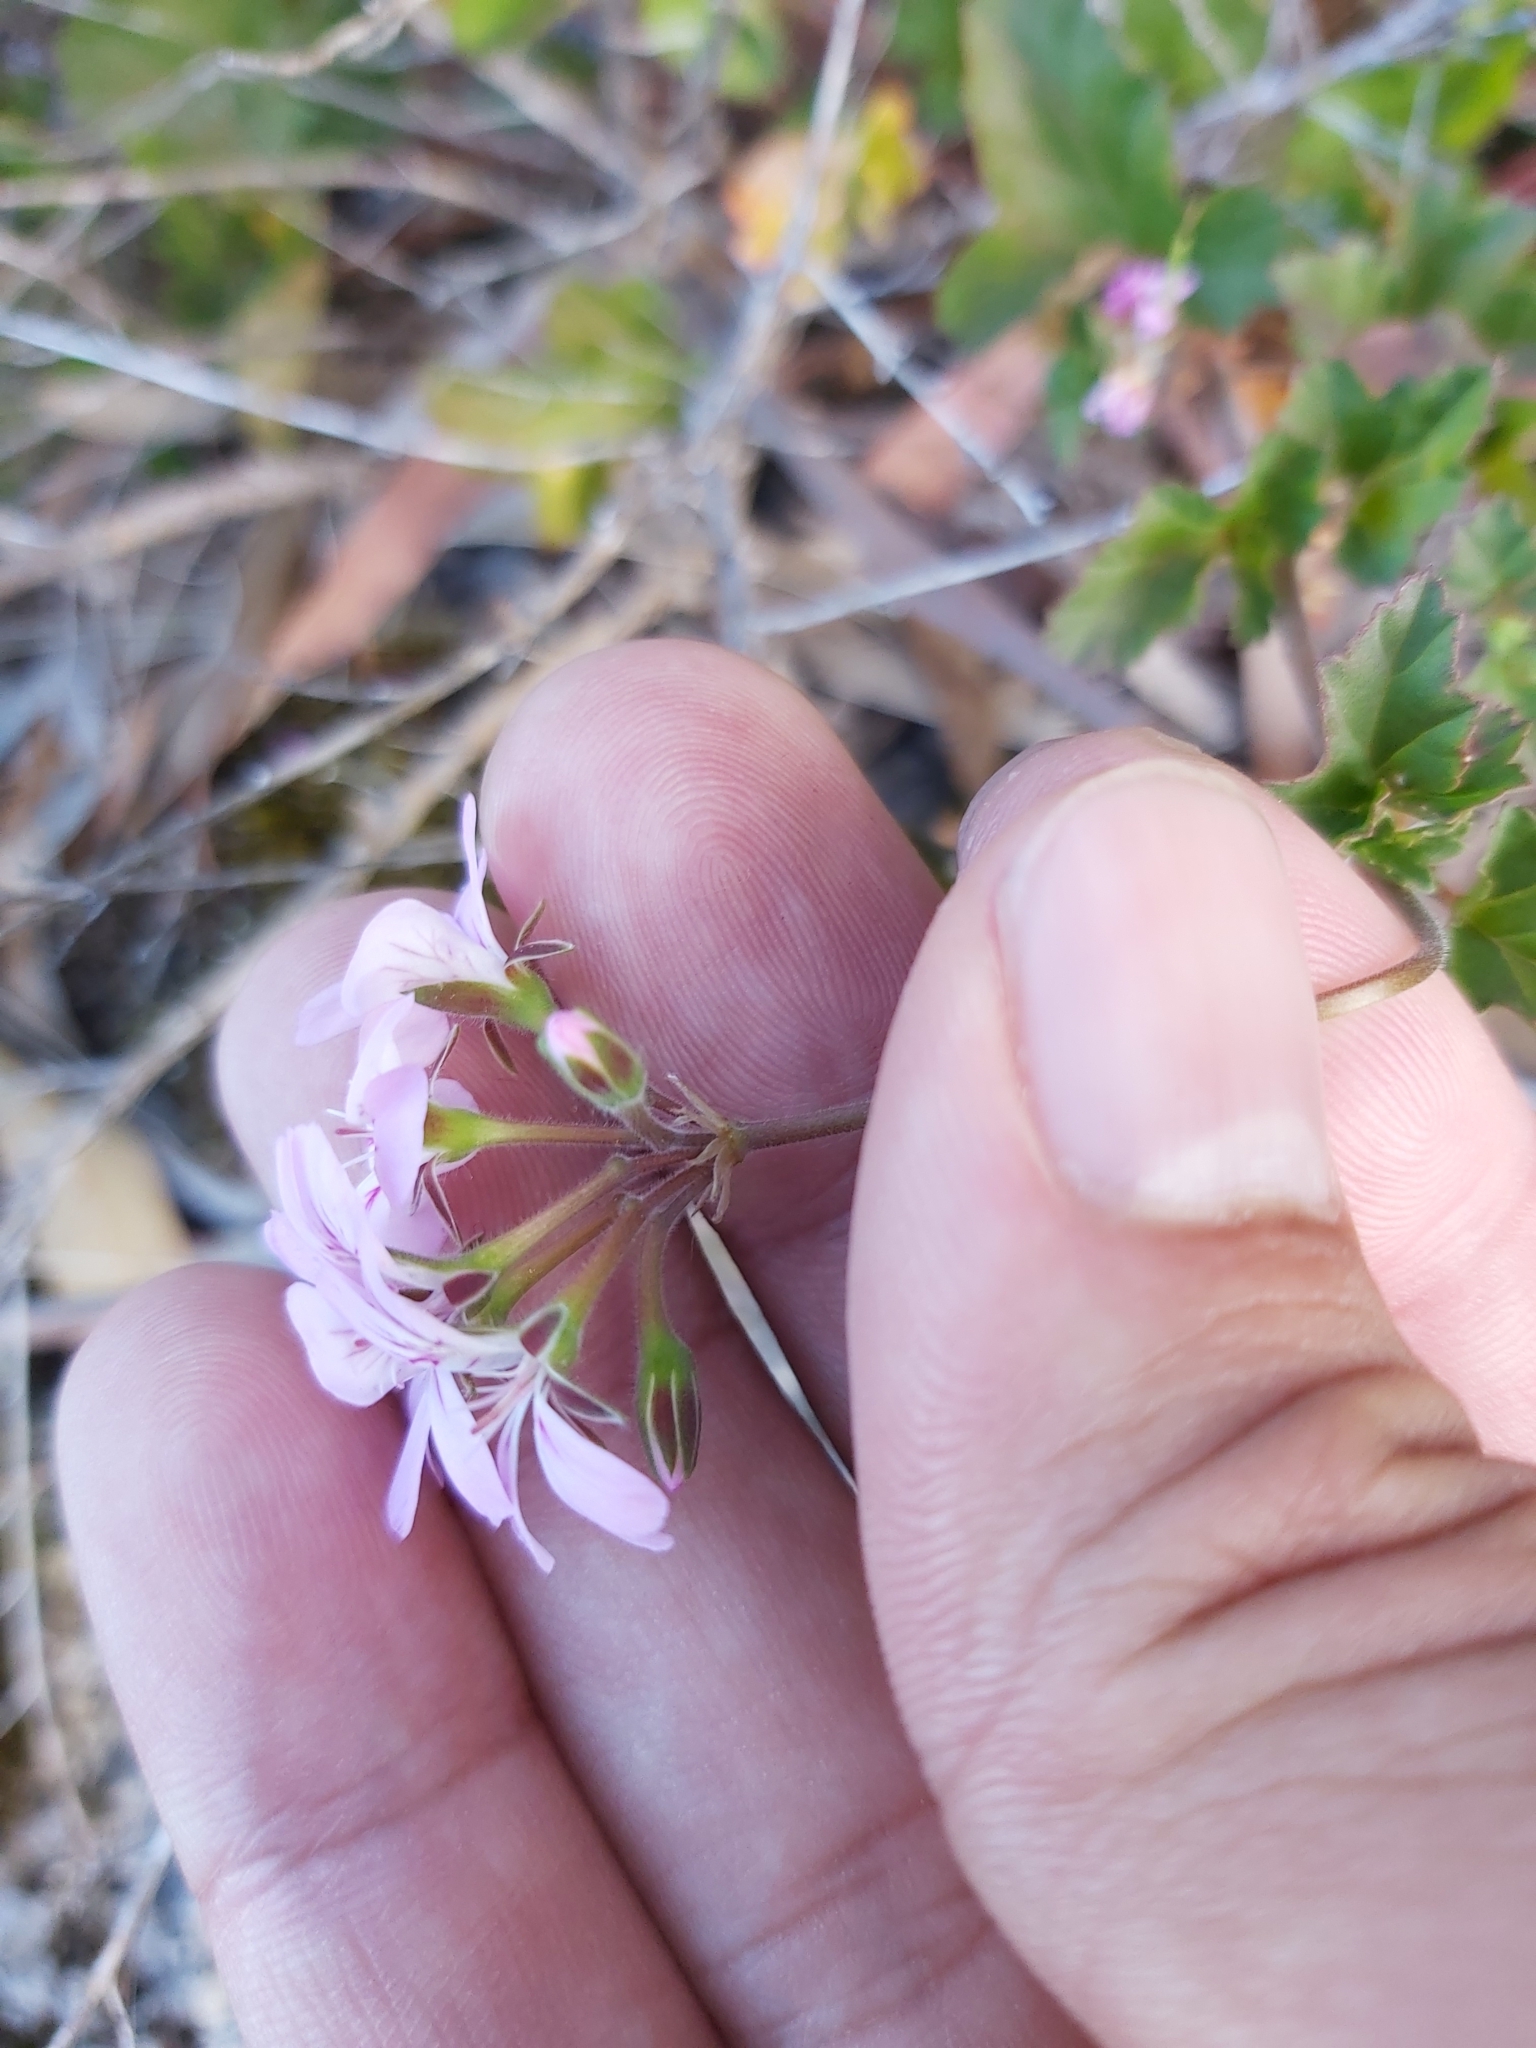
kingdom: Plantae
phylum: Tracheophyta
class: Magnoliopsida
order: Geraniales
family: Geraniaceae
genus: Pelargonium
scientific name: Pelargonium australe
